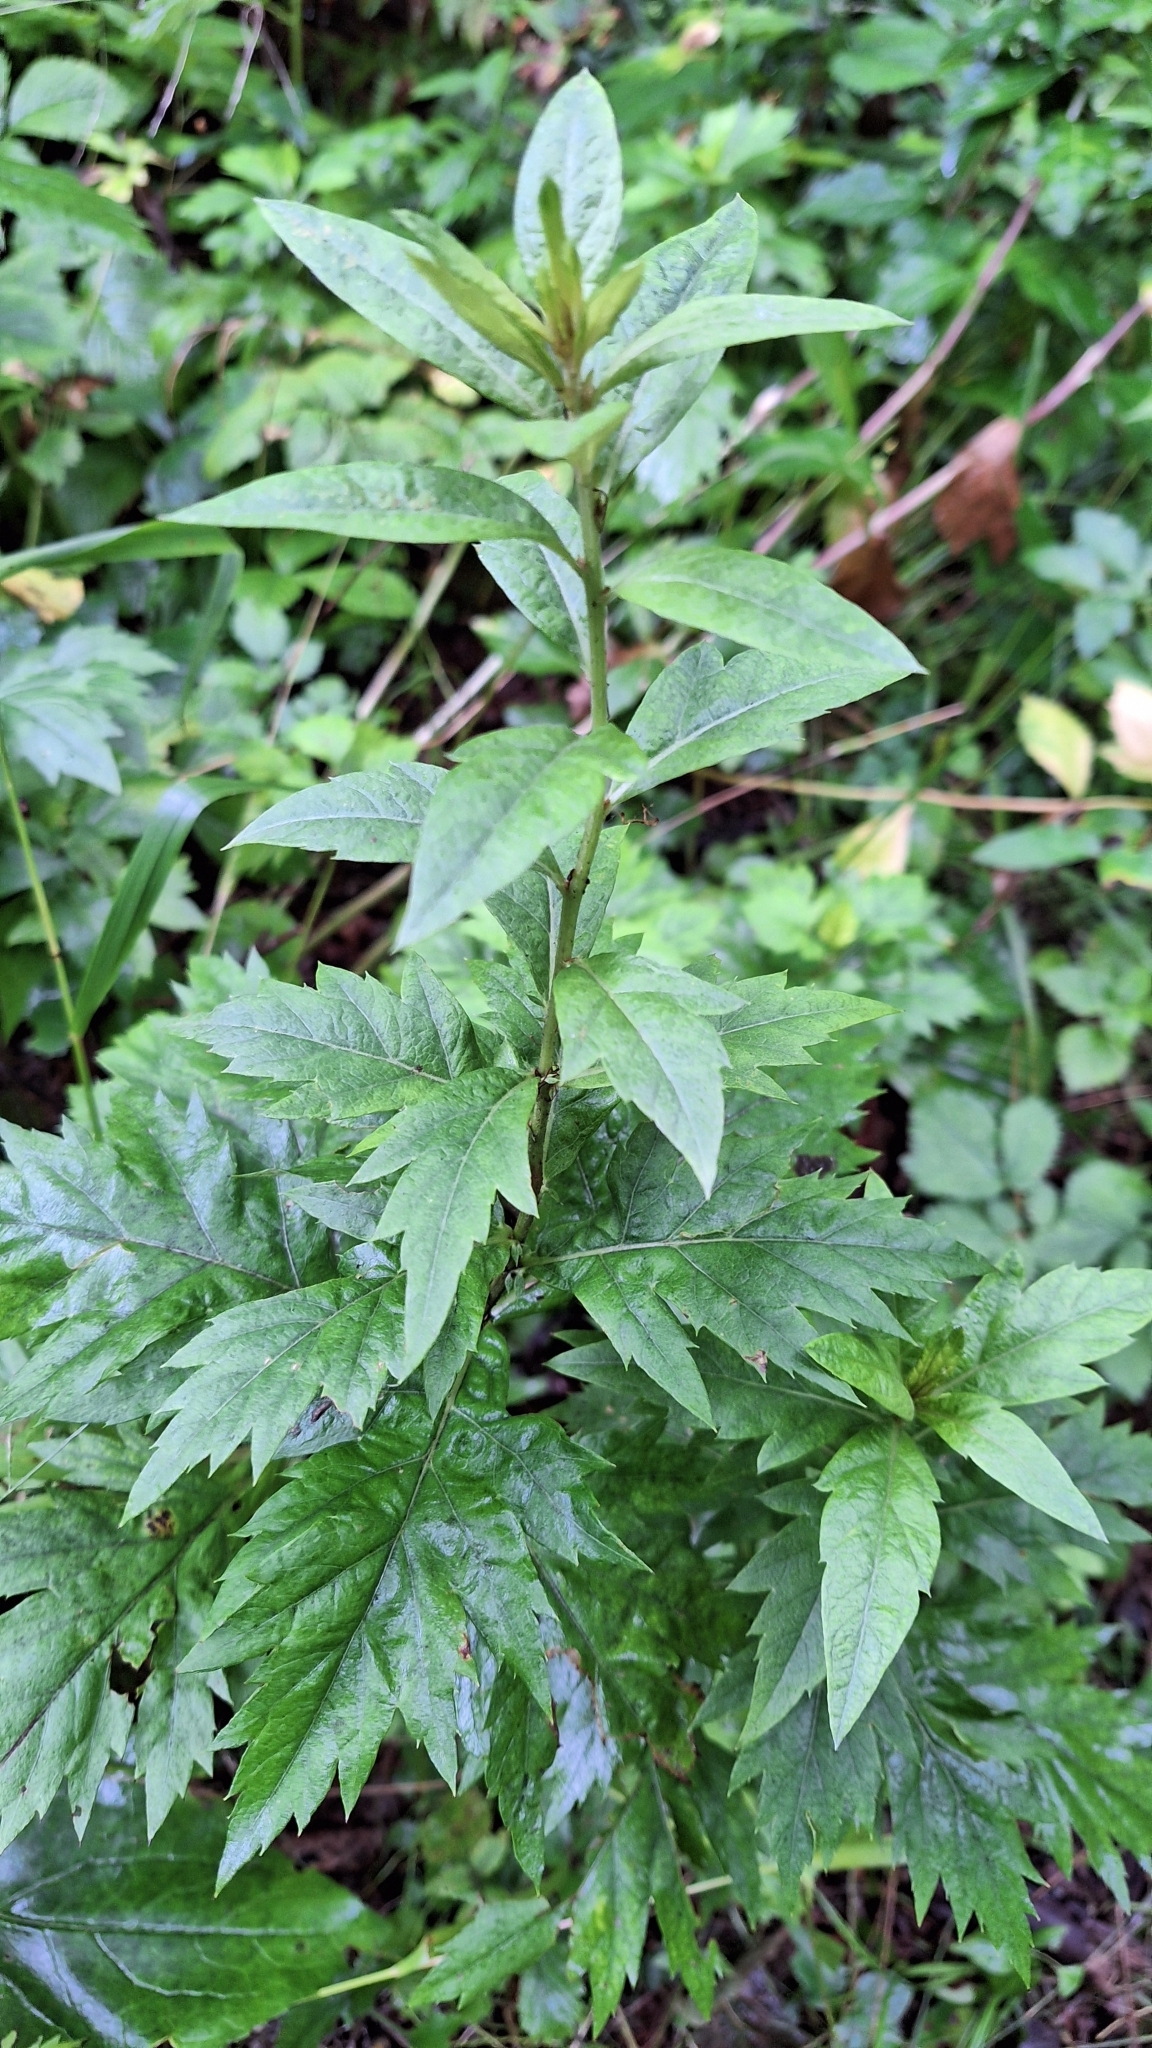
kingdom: Plantae
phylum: Tracheophyta
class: Magnoliopsida
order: Asterales
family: Asteraceae
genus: Artemisia
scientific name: Artemisia stolonifera
